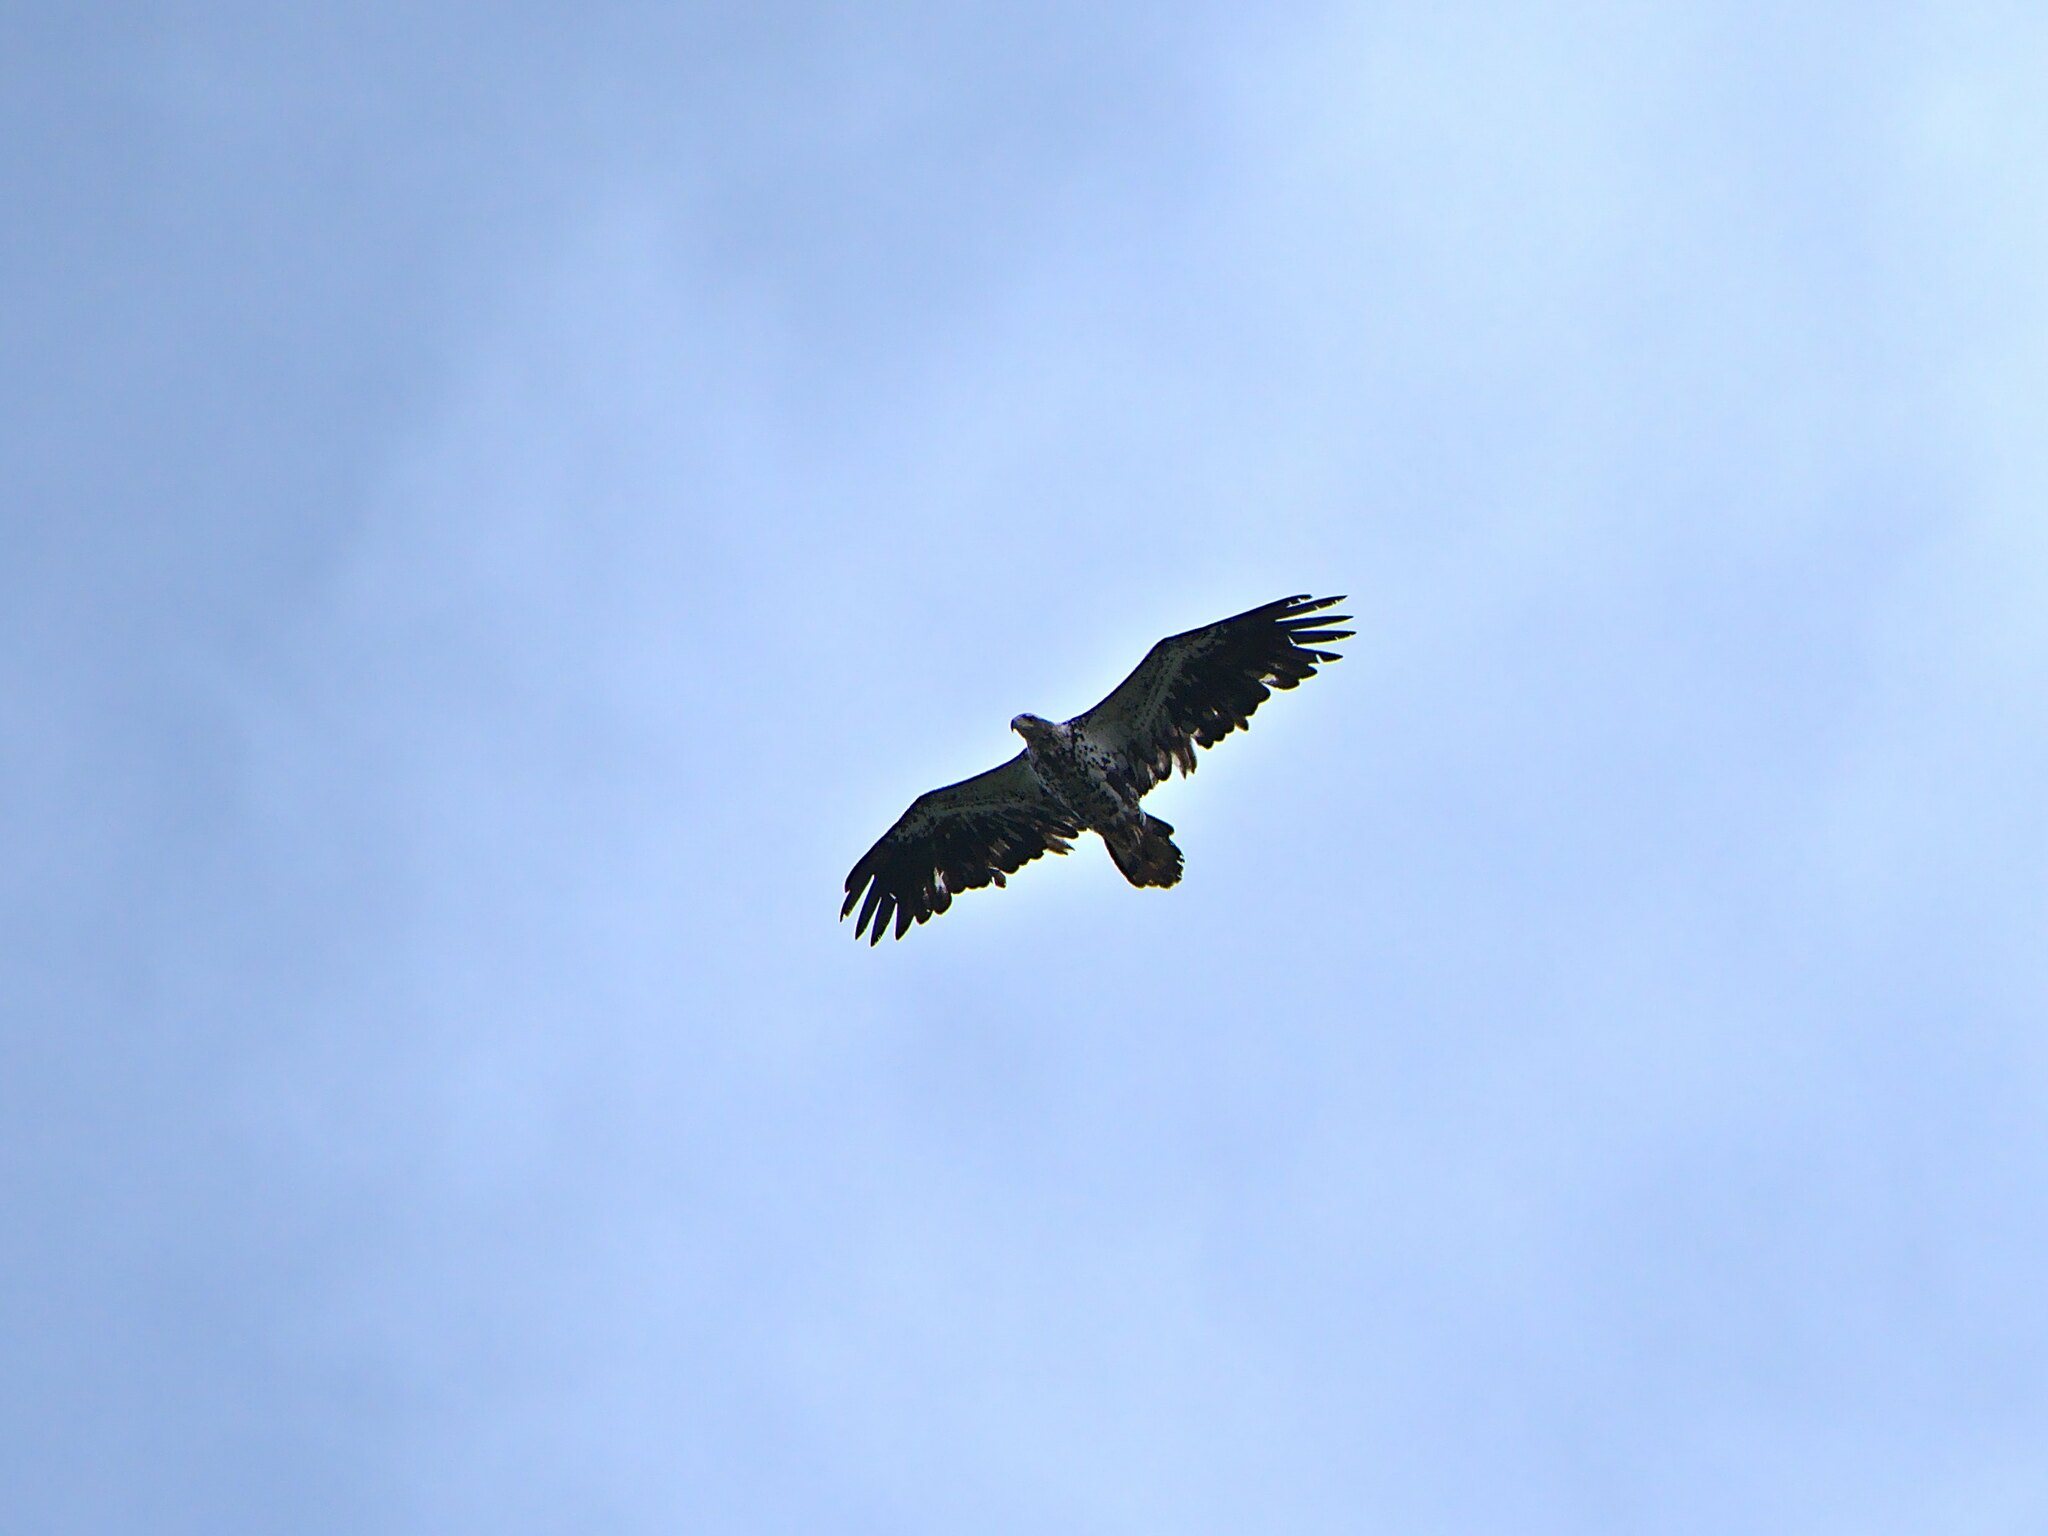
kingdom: Animalia
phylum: Chordata
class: Aves
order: Accipitriformes
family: Accipitridae
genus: Haliaeetus
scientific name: Haliaeetus leucocephalus
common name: Bald eagle
